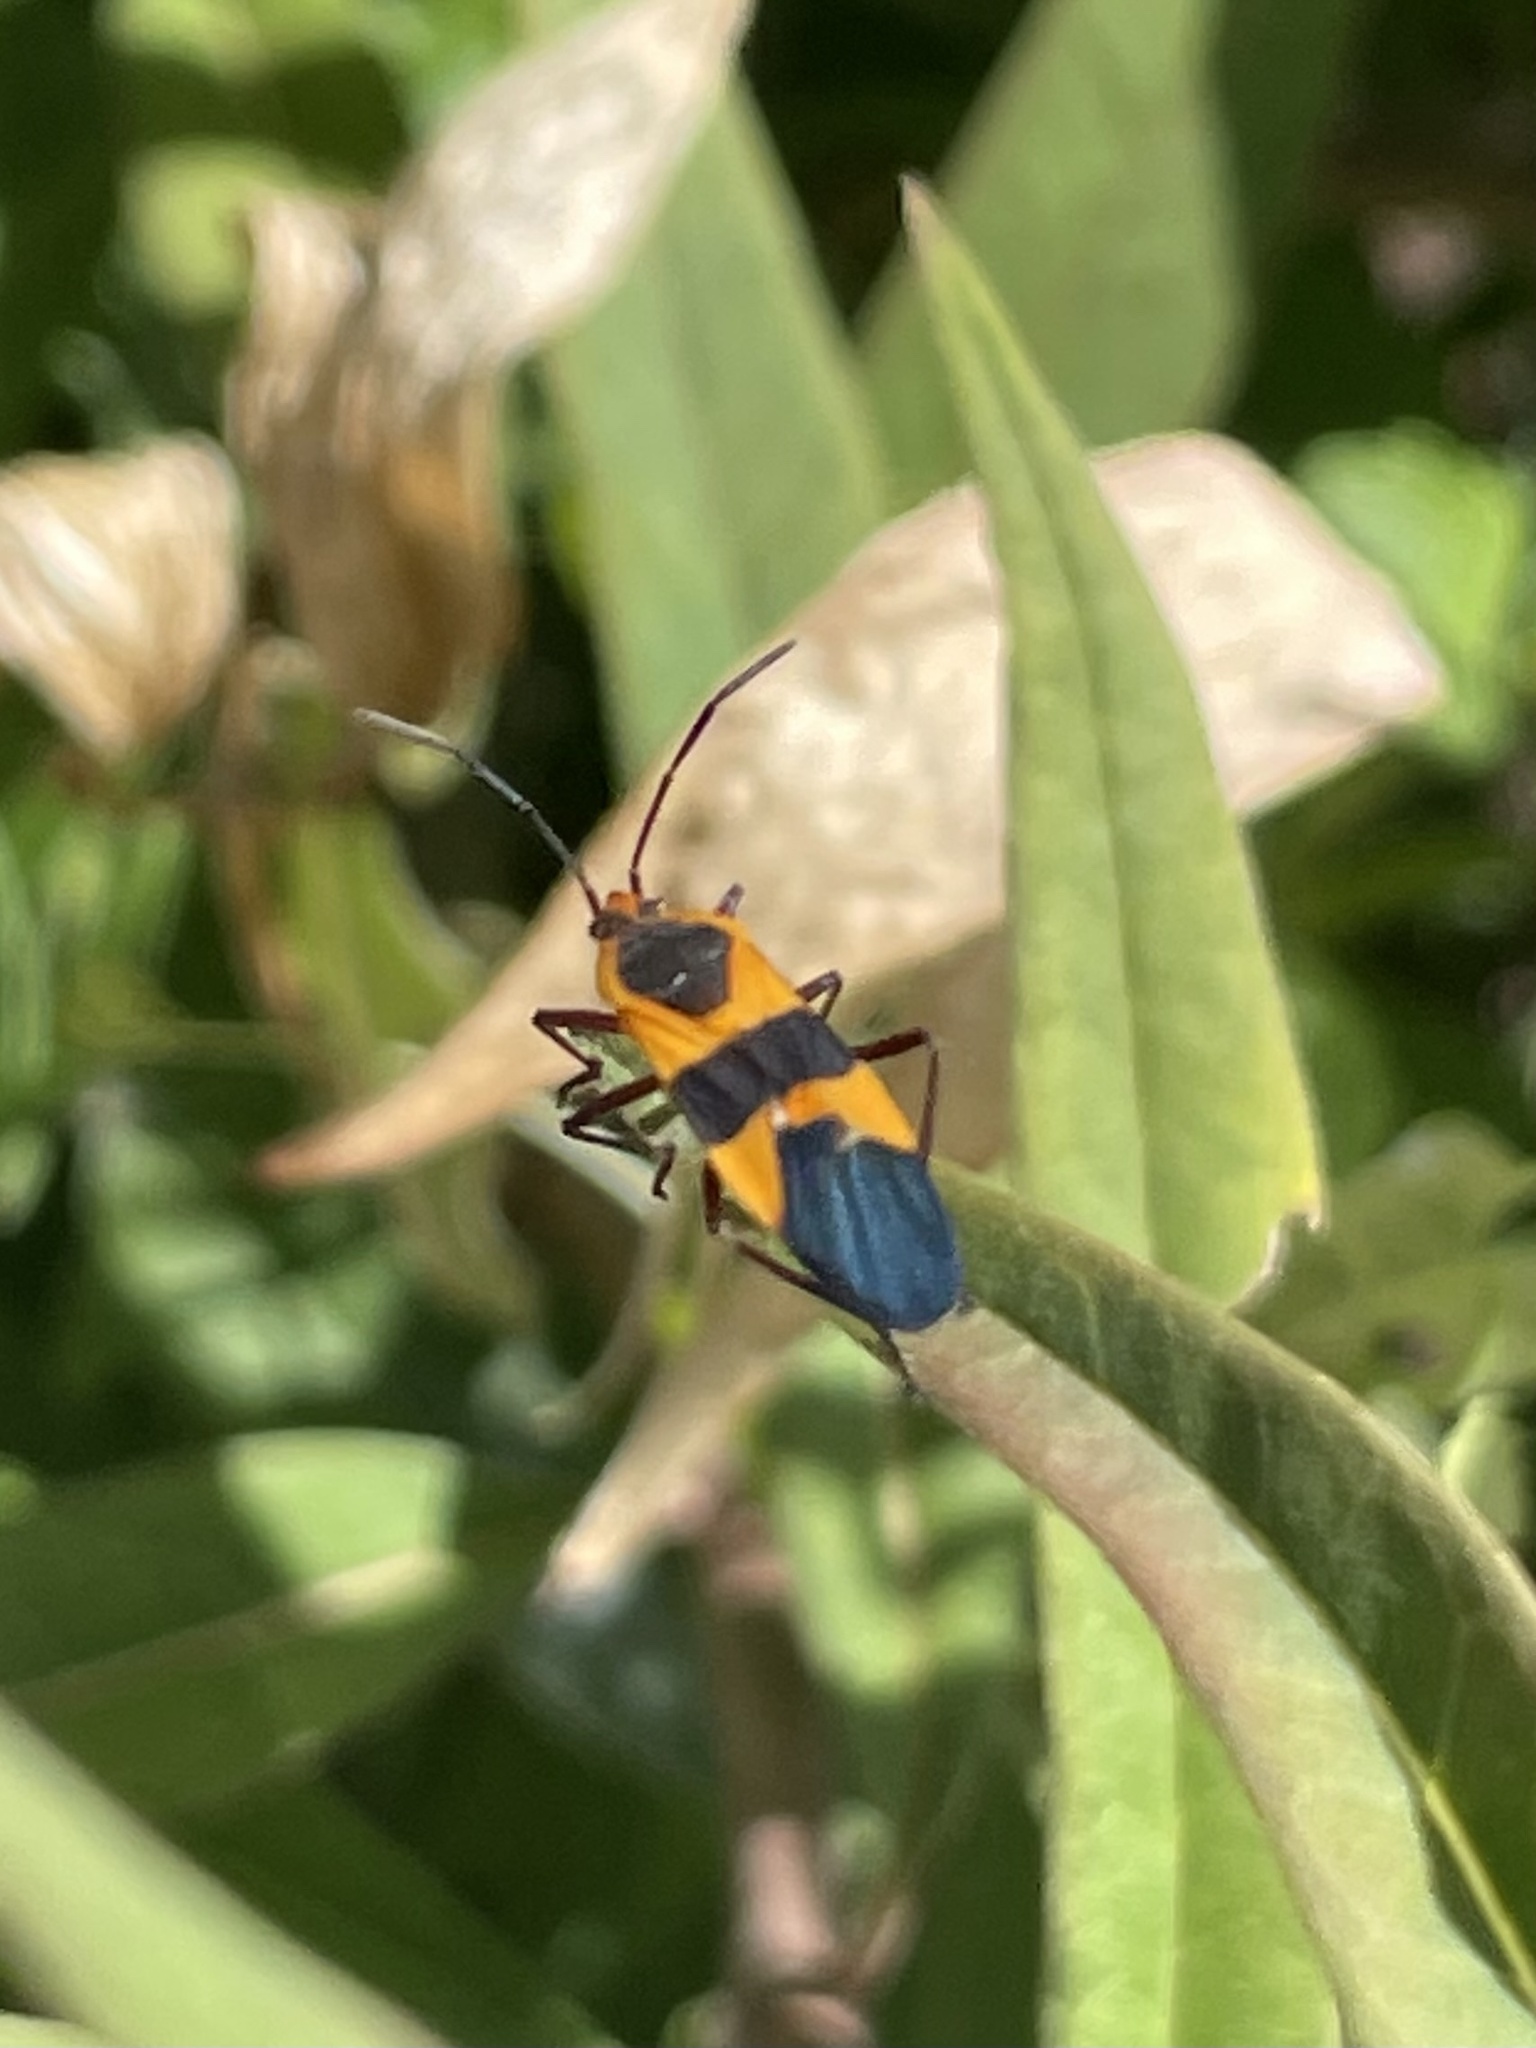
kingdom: Animalia
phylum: Arthropoda
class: Insecta
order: Hemiptera
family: Lygaeidae
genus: Oncopeltus
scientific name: Oncopeltus fasciatus
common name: Large milkweed bug
